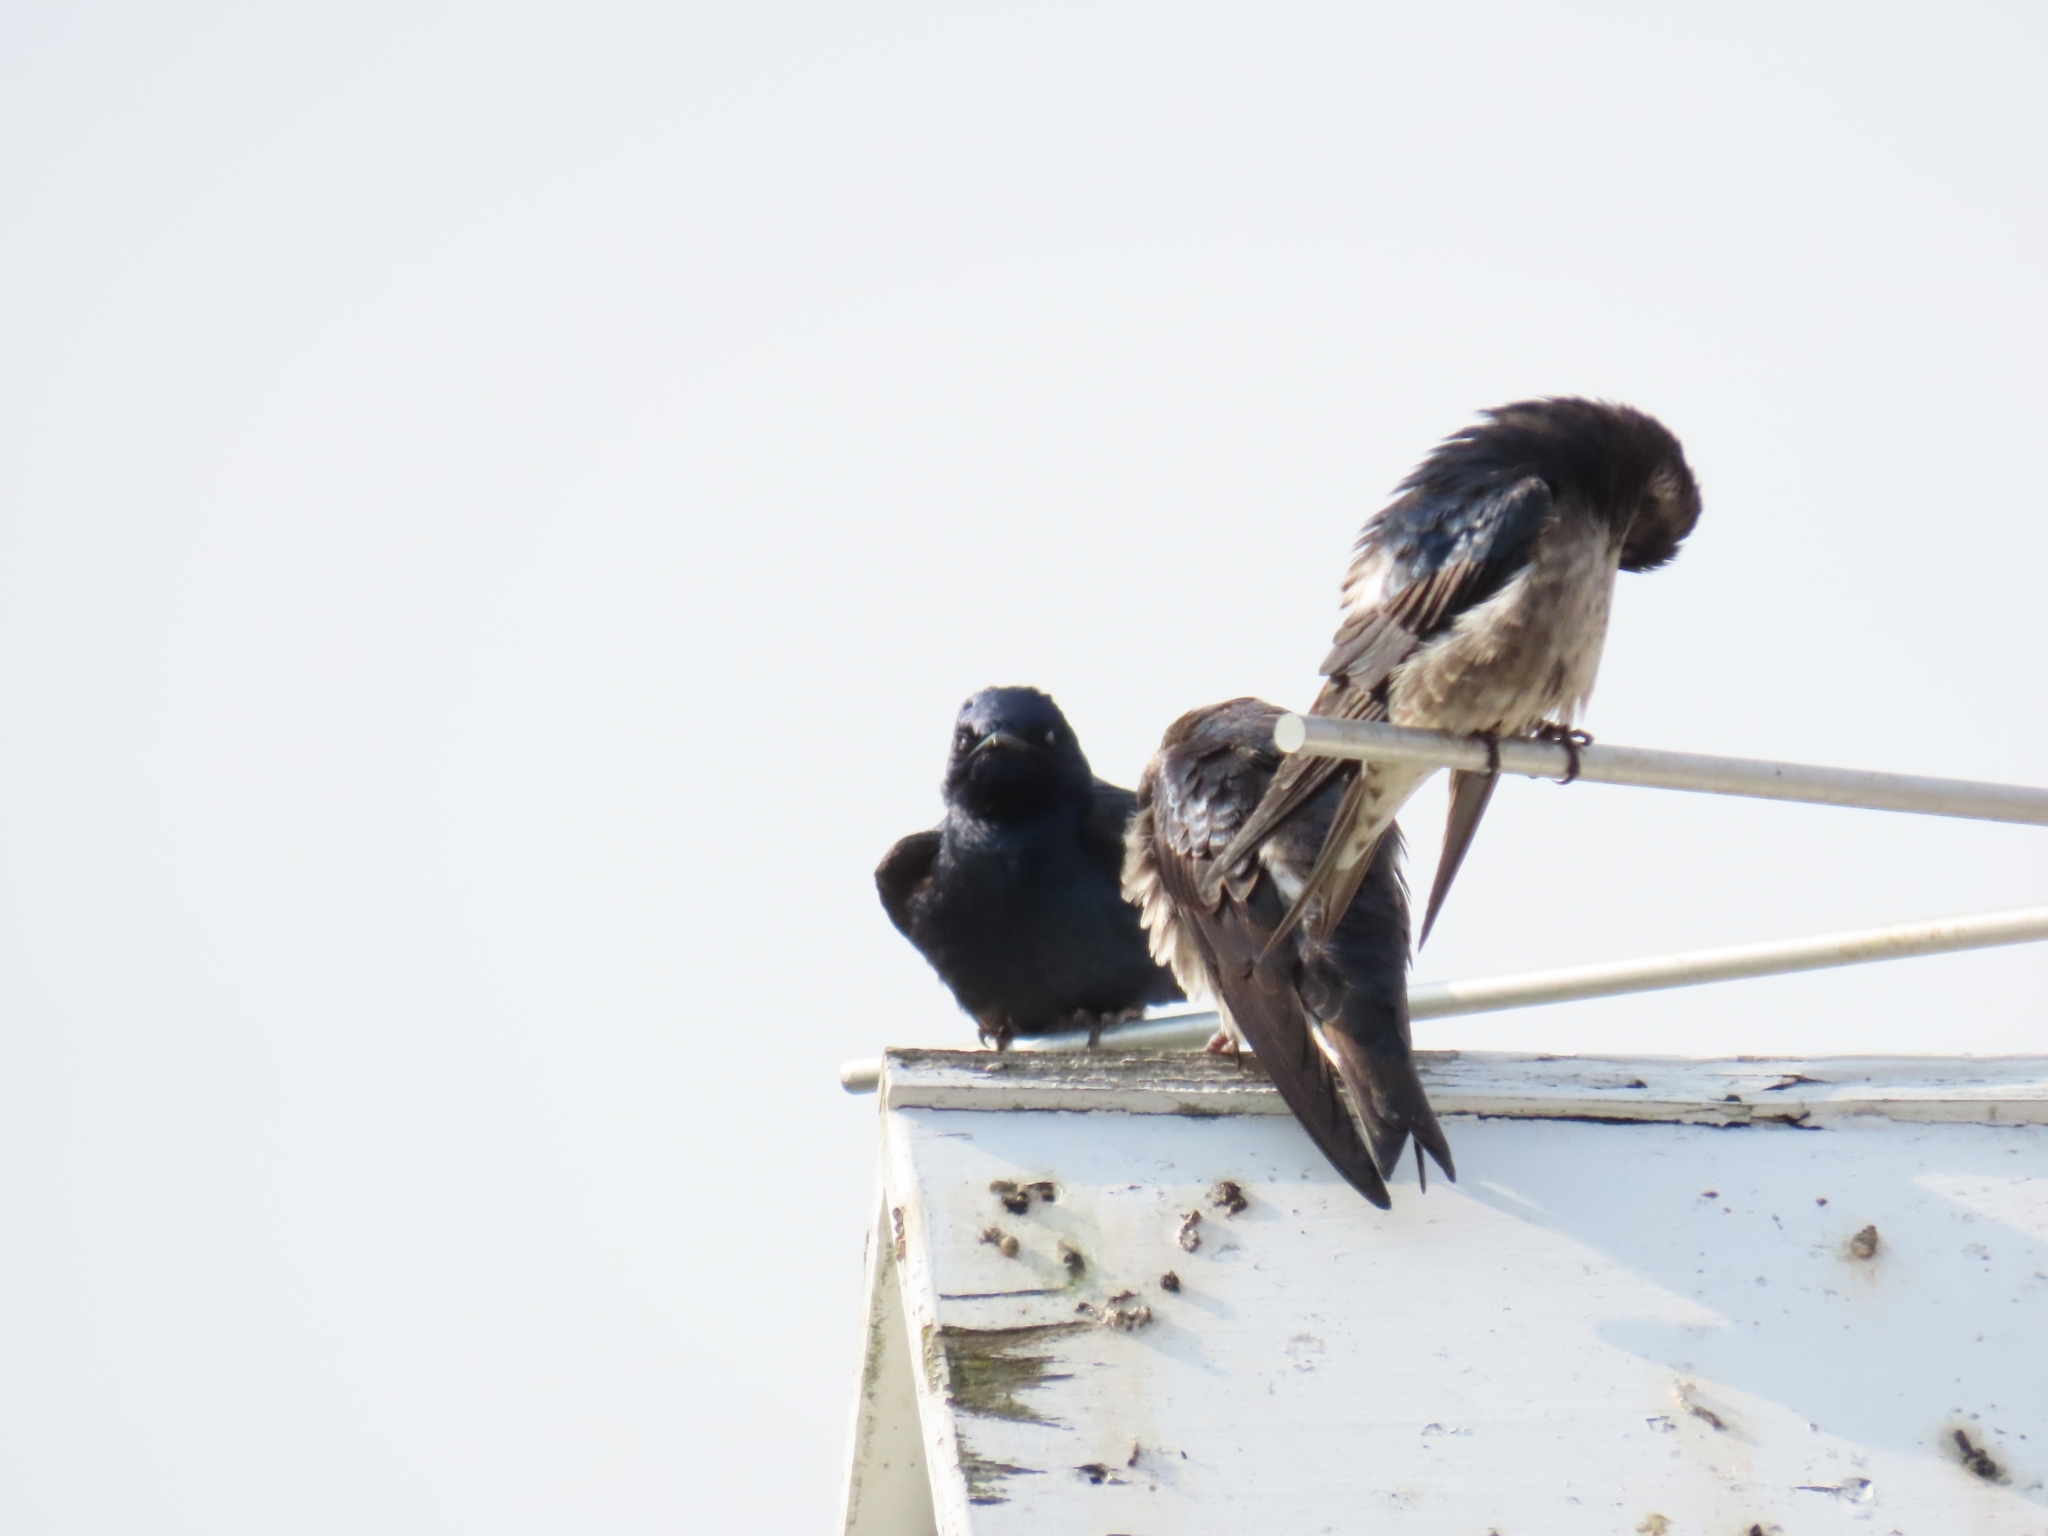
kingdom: Animalia
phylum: Chordata
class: Aves
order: Passeriformes
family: Hirundinidae
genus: Progne
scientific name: Progne subis
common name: Purple martin
